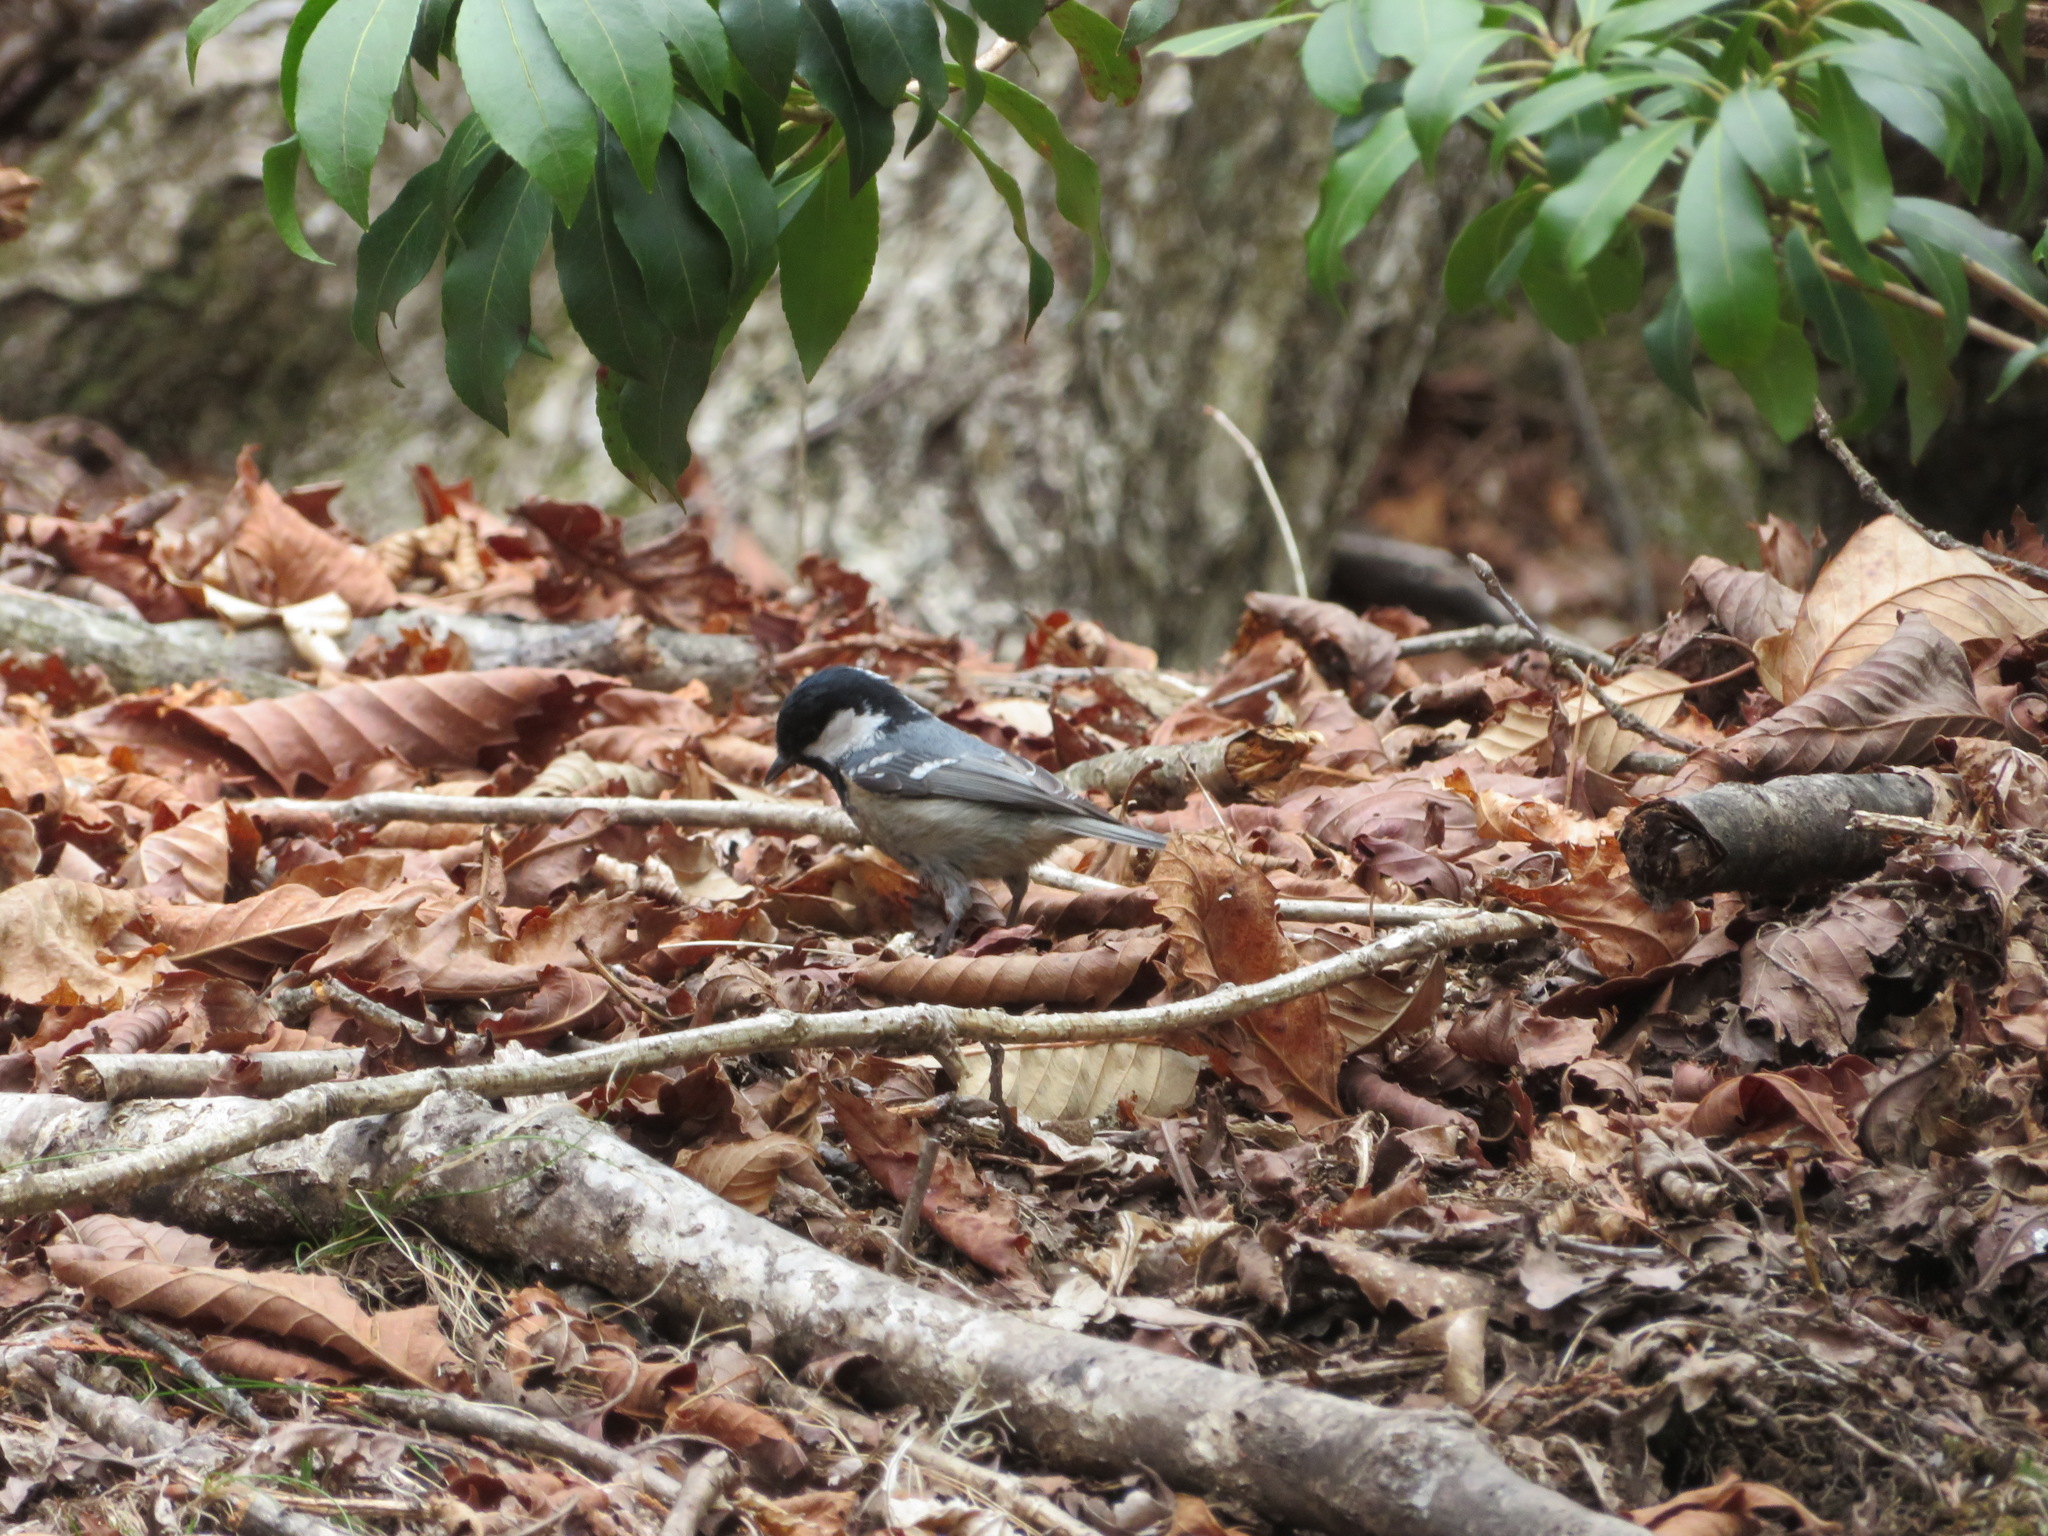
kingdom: Animalia
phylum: Chordata
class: Aves
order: Passeriformes
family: Paridae
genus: Periparus
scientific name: Periparus ater
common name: Coal tit
